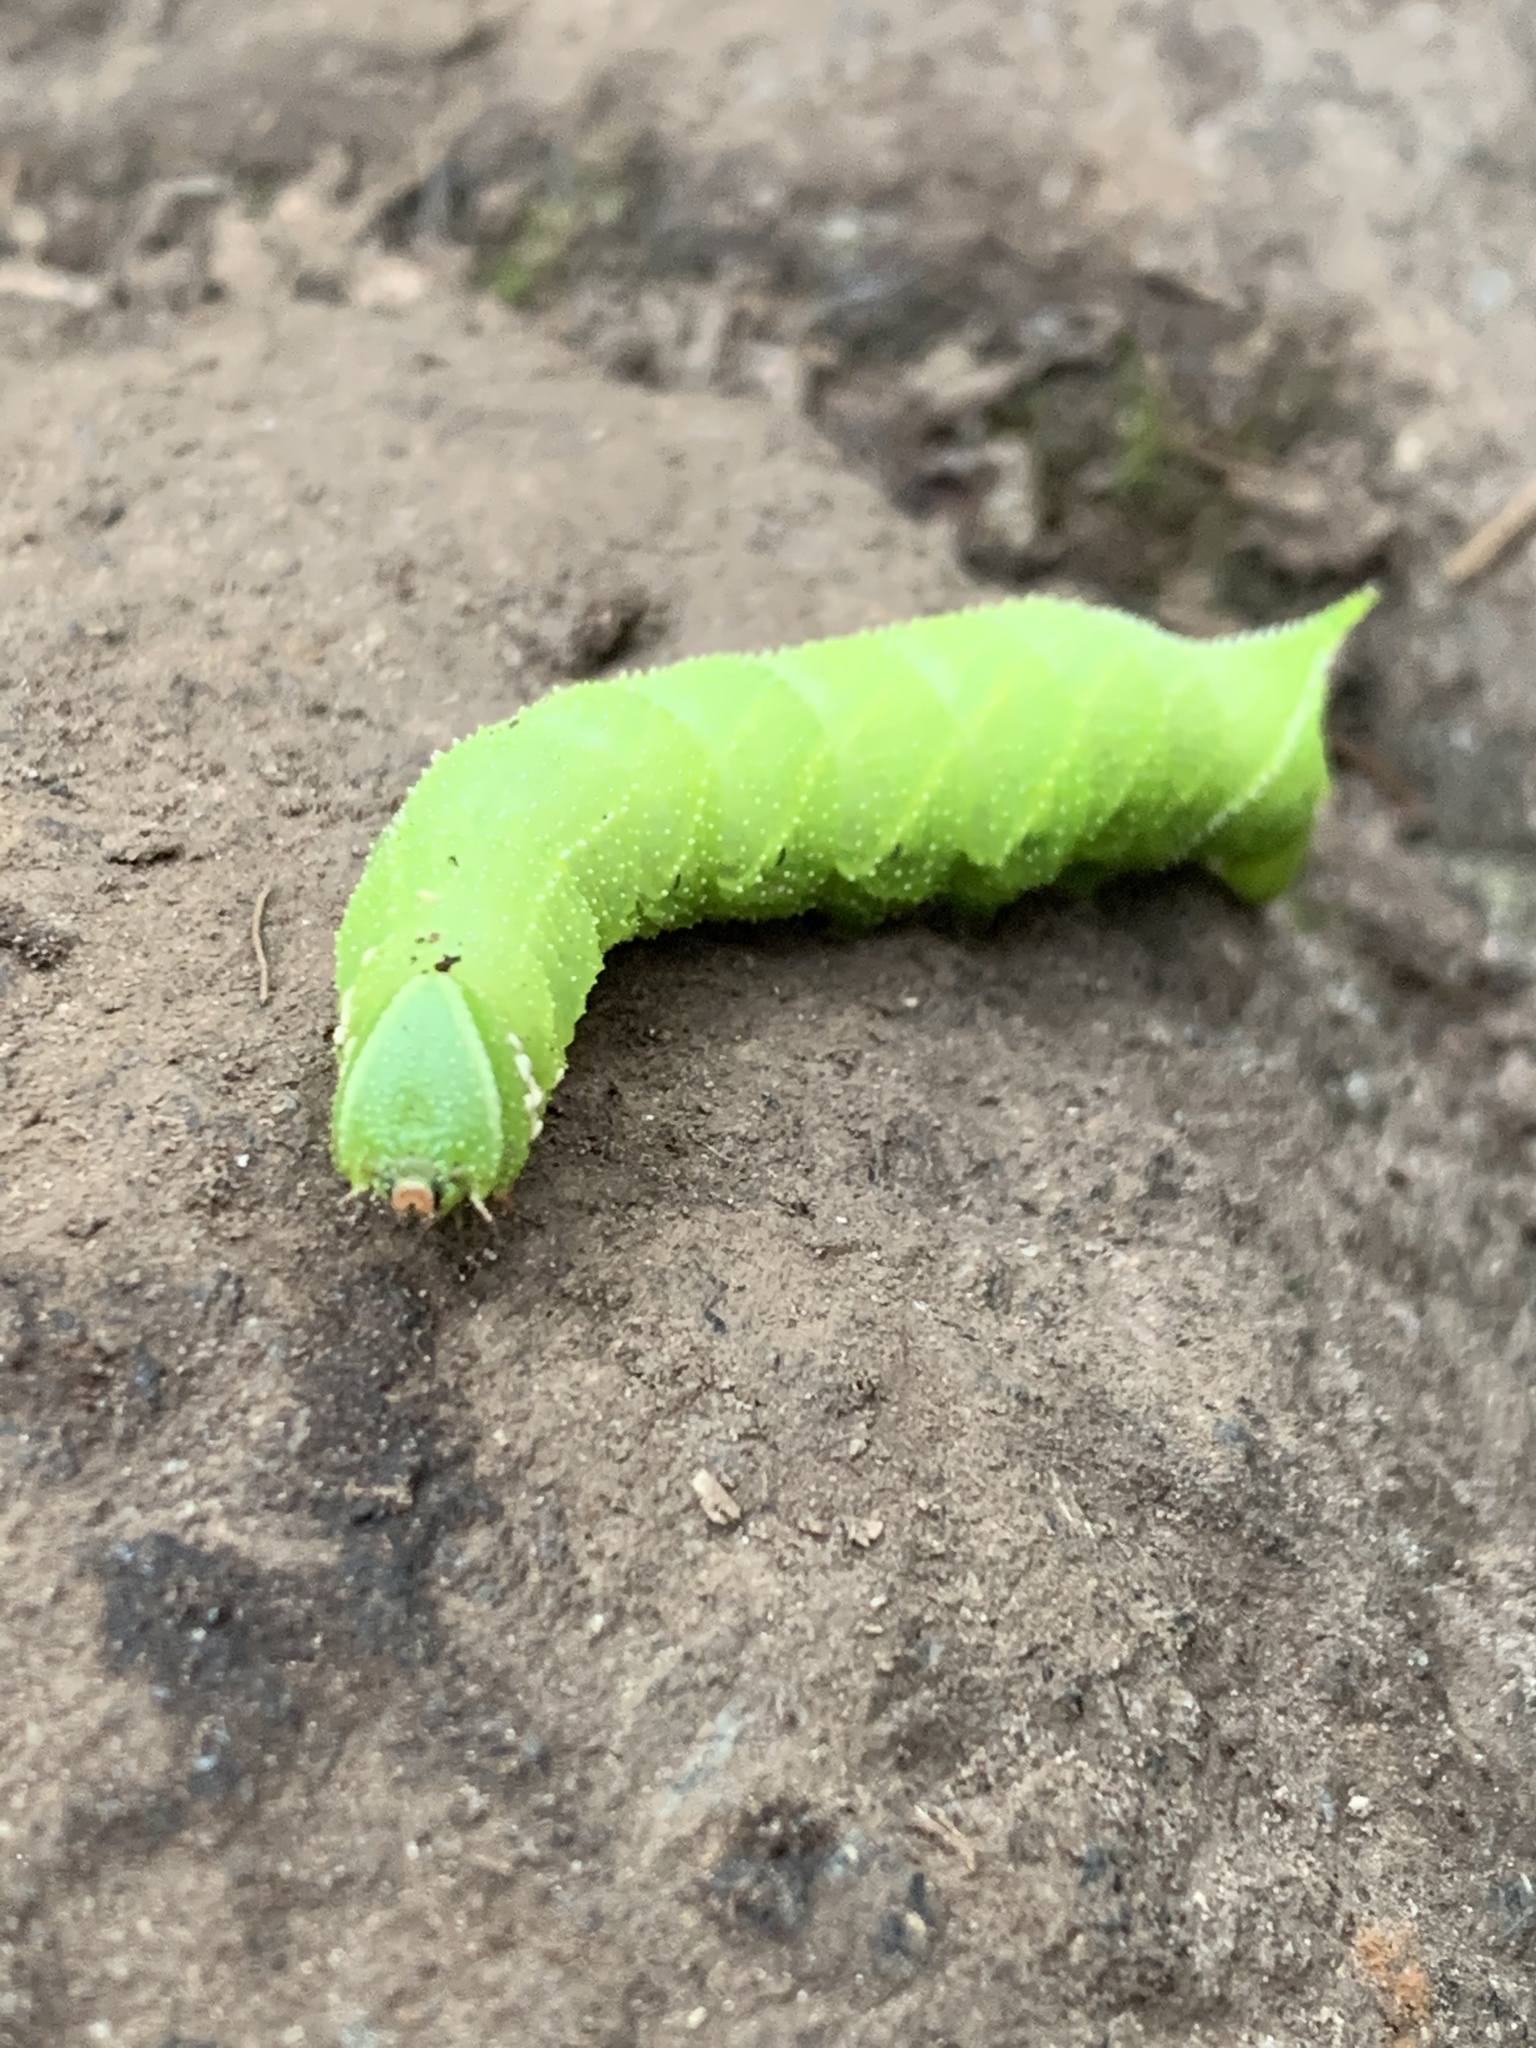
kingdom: Animalia
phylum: Arthropoda
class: Insecta
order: Lepidoptera
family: Sphingidae
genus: Paonias
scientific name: Paonias excaecata
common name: Blind-eyed sphinx
